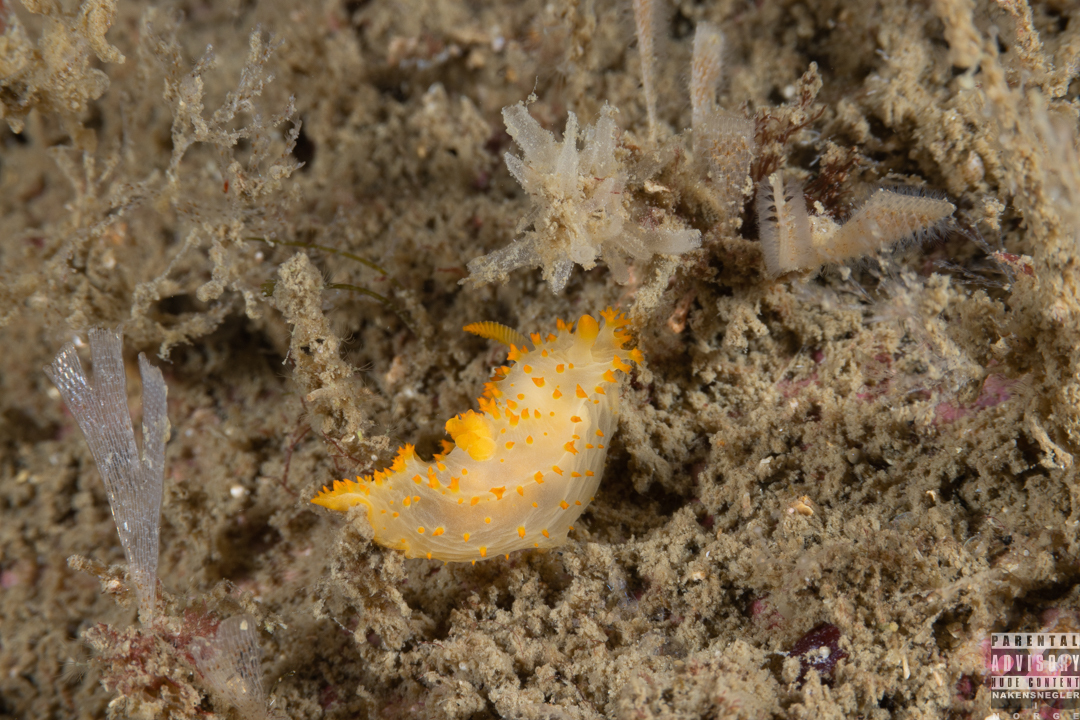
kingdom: Animalia
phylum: Mollusca
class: Gastropoda
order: Nudibranchia
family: Polyceridae
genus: Crimora
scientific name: Crimora papillata
